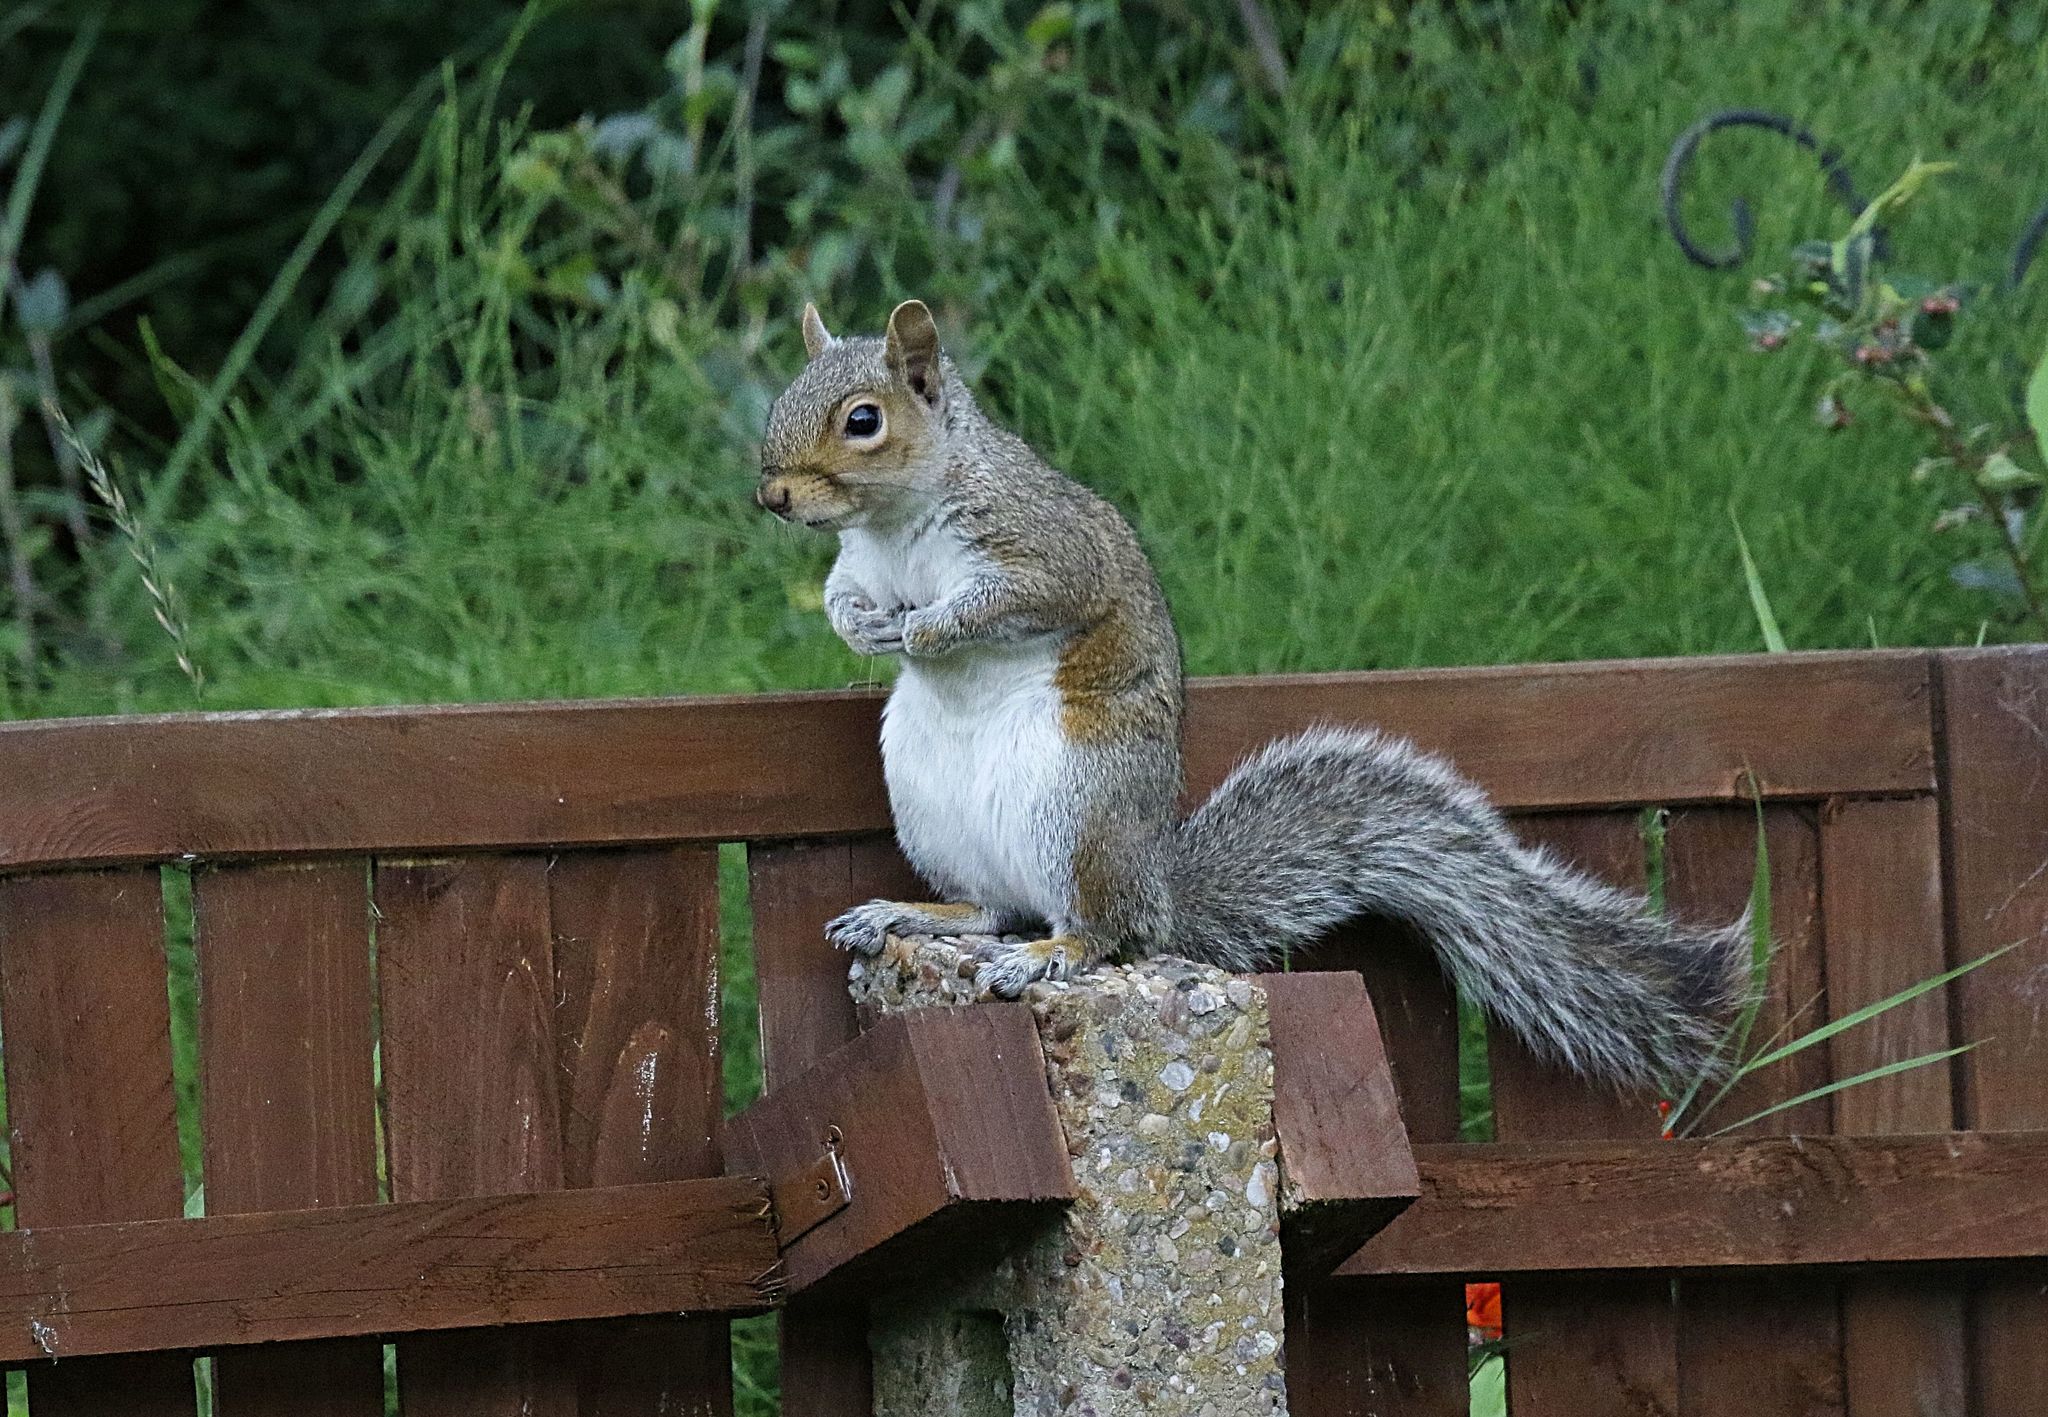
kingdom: Animalia
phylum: Chordata
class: Mammalia
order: Rodentia
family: Sciuridae
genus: Sciurus
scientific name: Sciurus carolinensis
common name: Eastern gray squirrel
